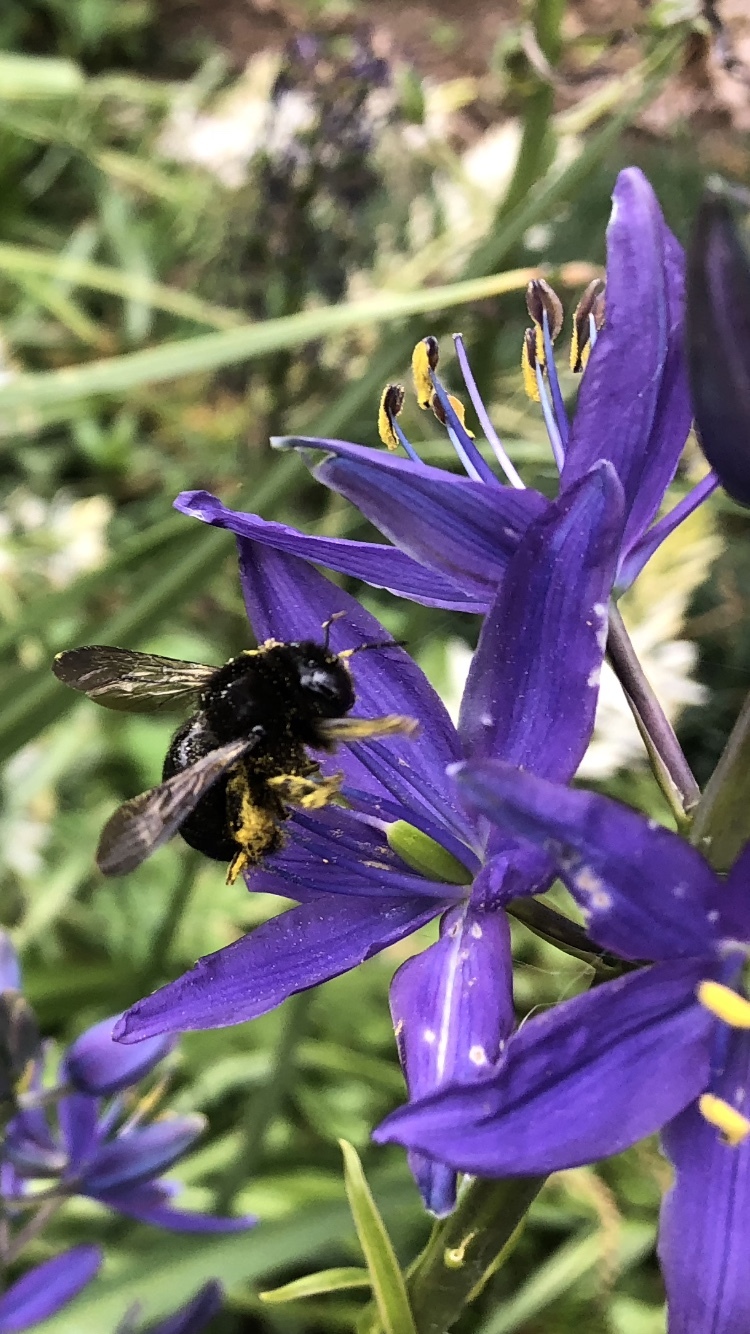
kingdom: Animalia
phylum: Arthropoda
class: Insecta
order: Hymenoptera
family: Apidae
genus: Xylocopa
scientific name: Xylocopa tabaniformis
